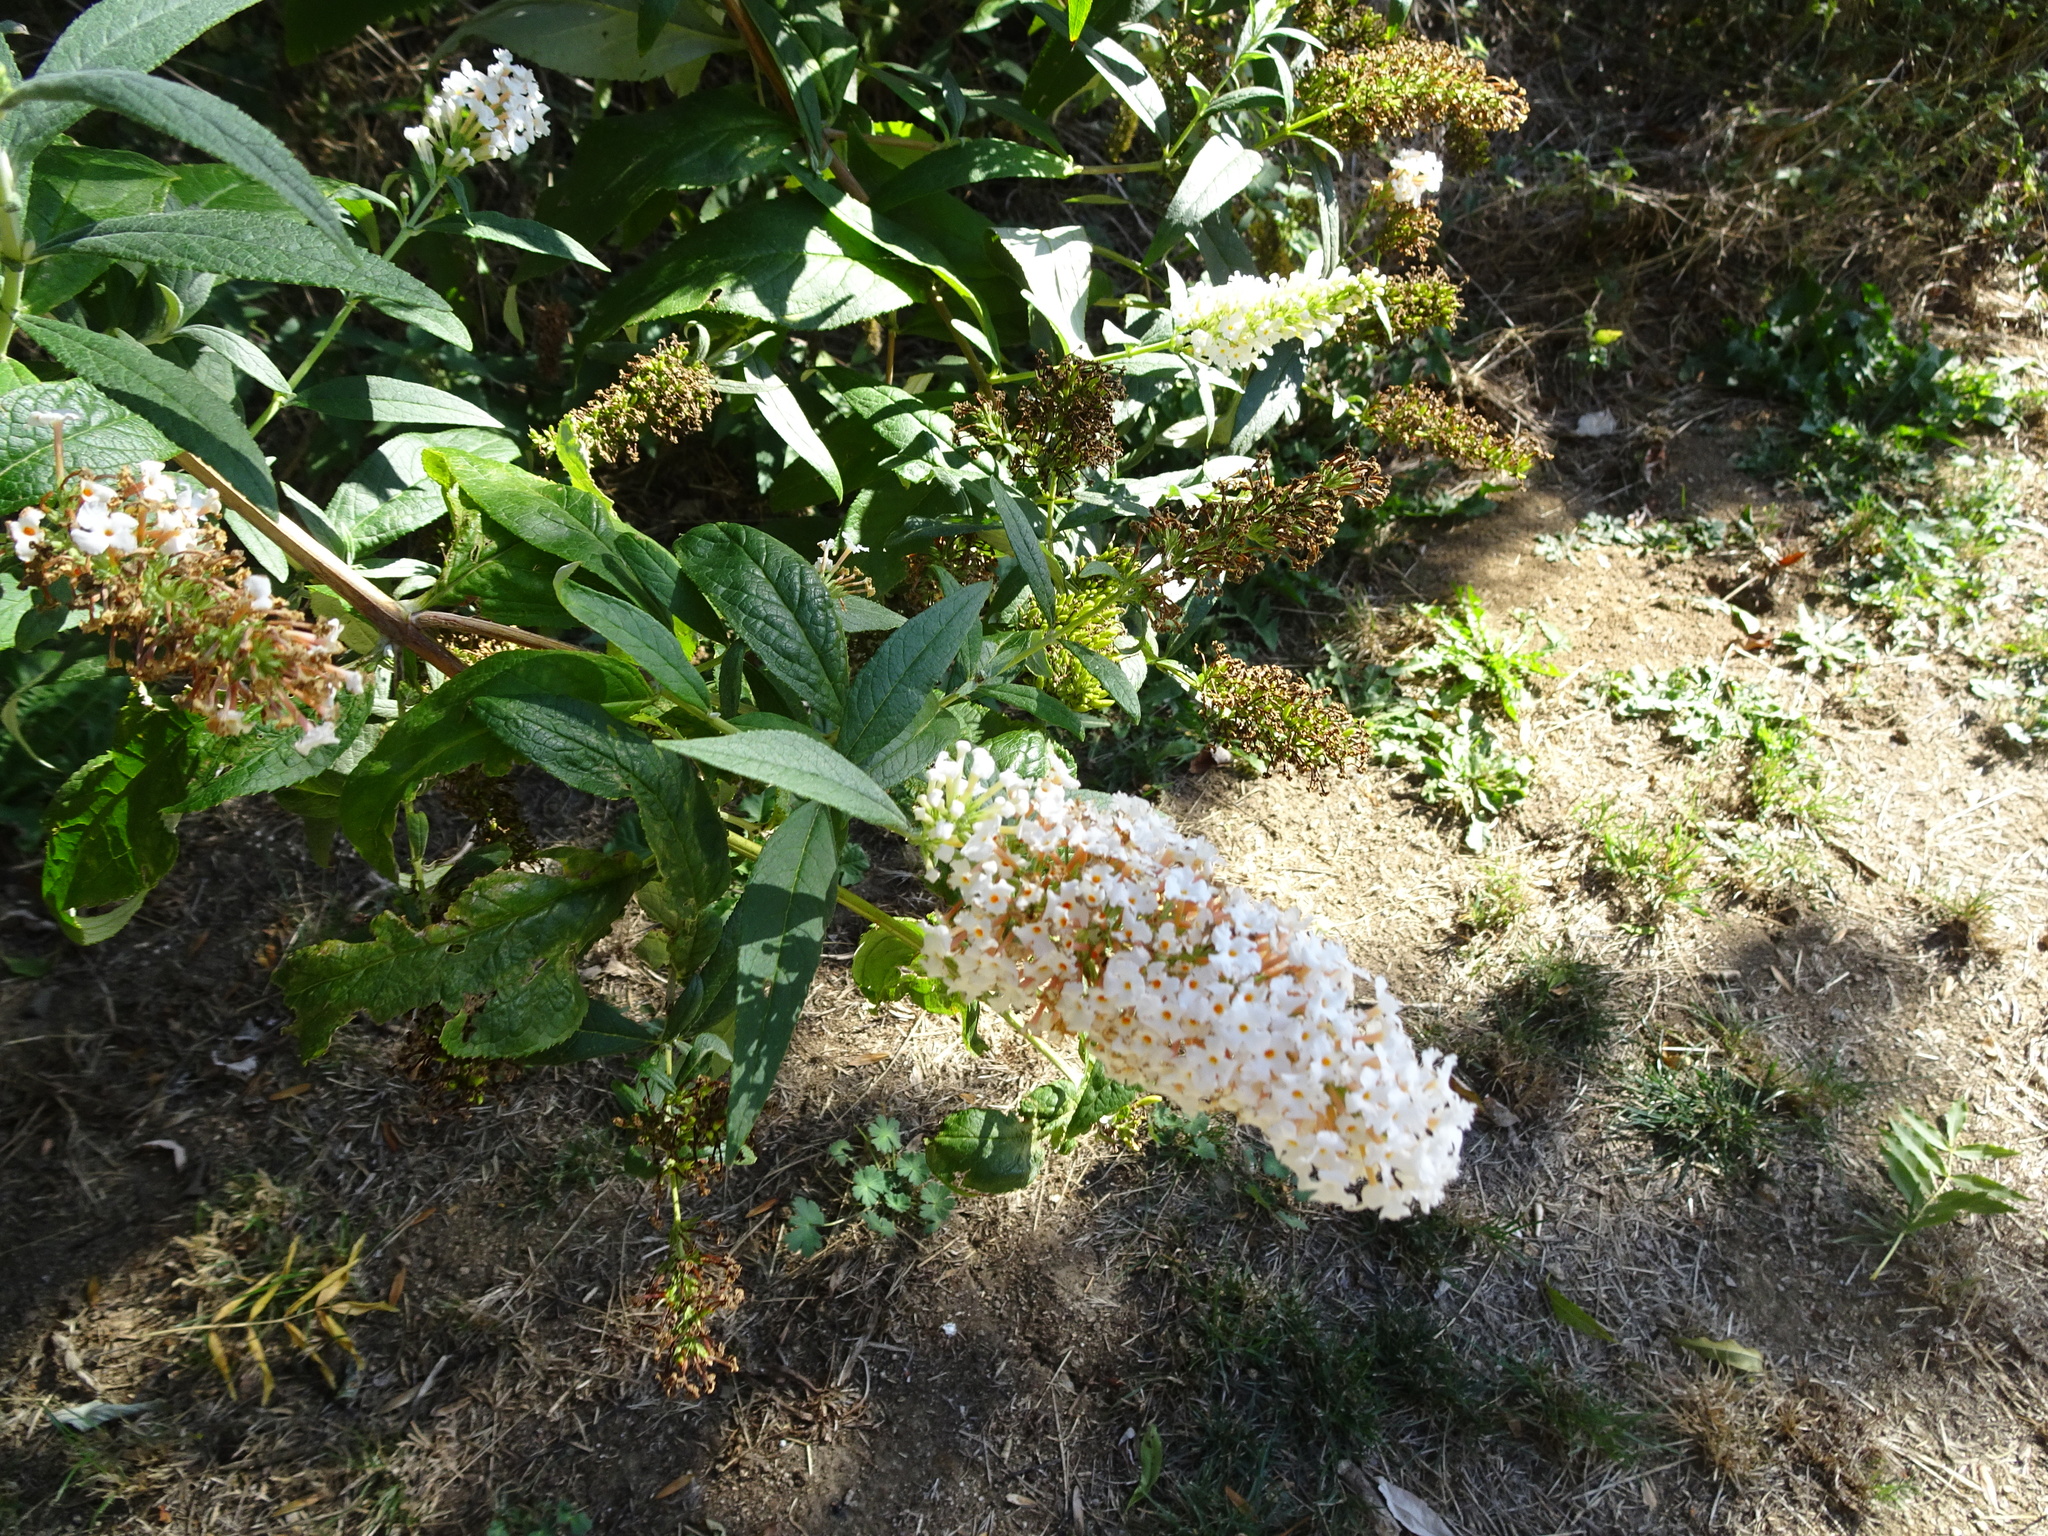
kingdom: Plantae
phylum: Tracheophyta
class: Magnoliopsida
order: Lamiales
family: Scrophulariaceae
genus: Buddleja
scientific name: Buddleja davidii
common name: Butterfly-bush
